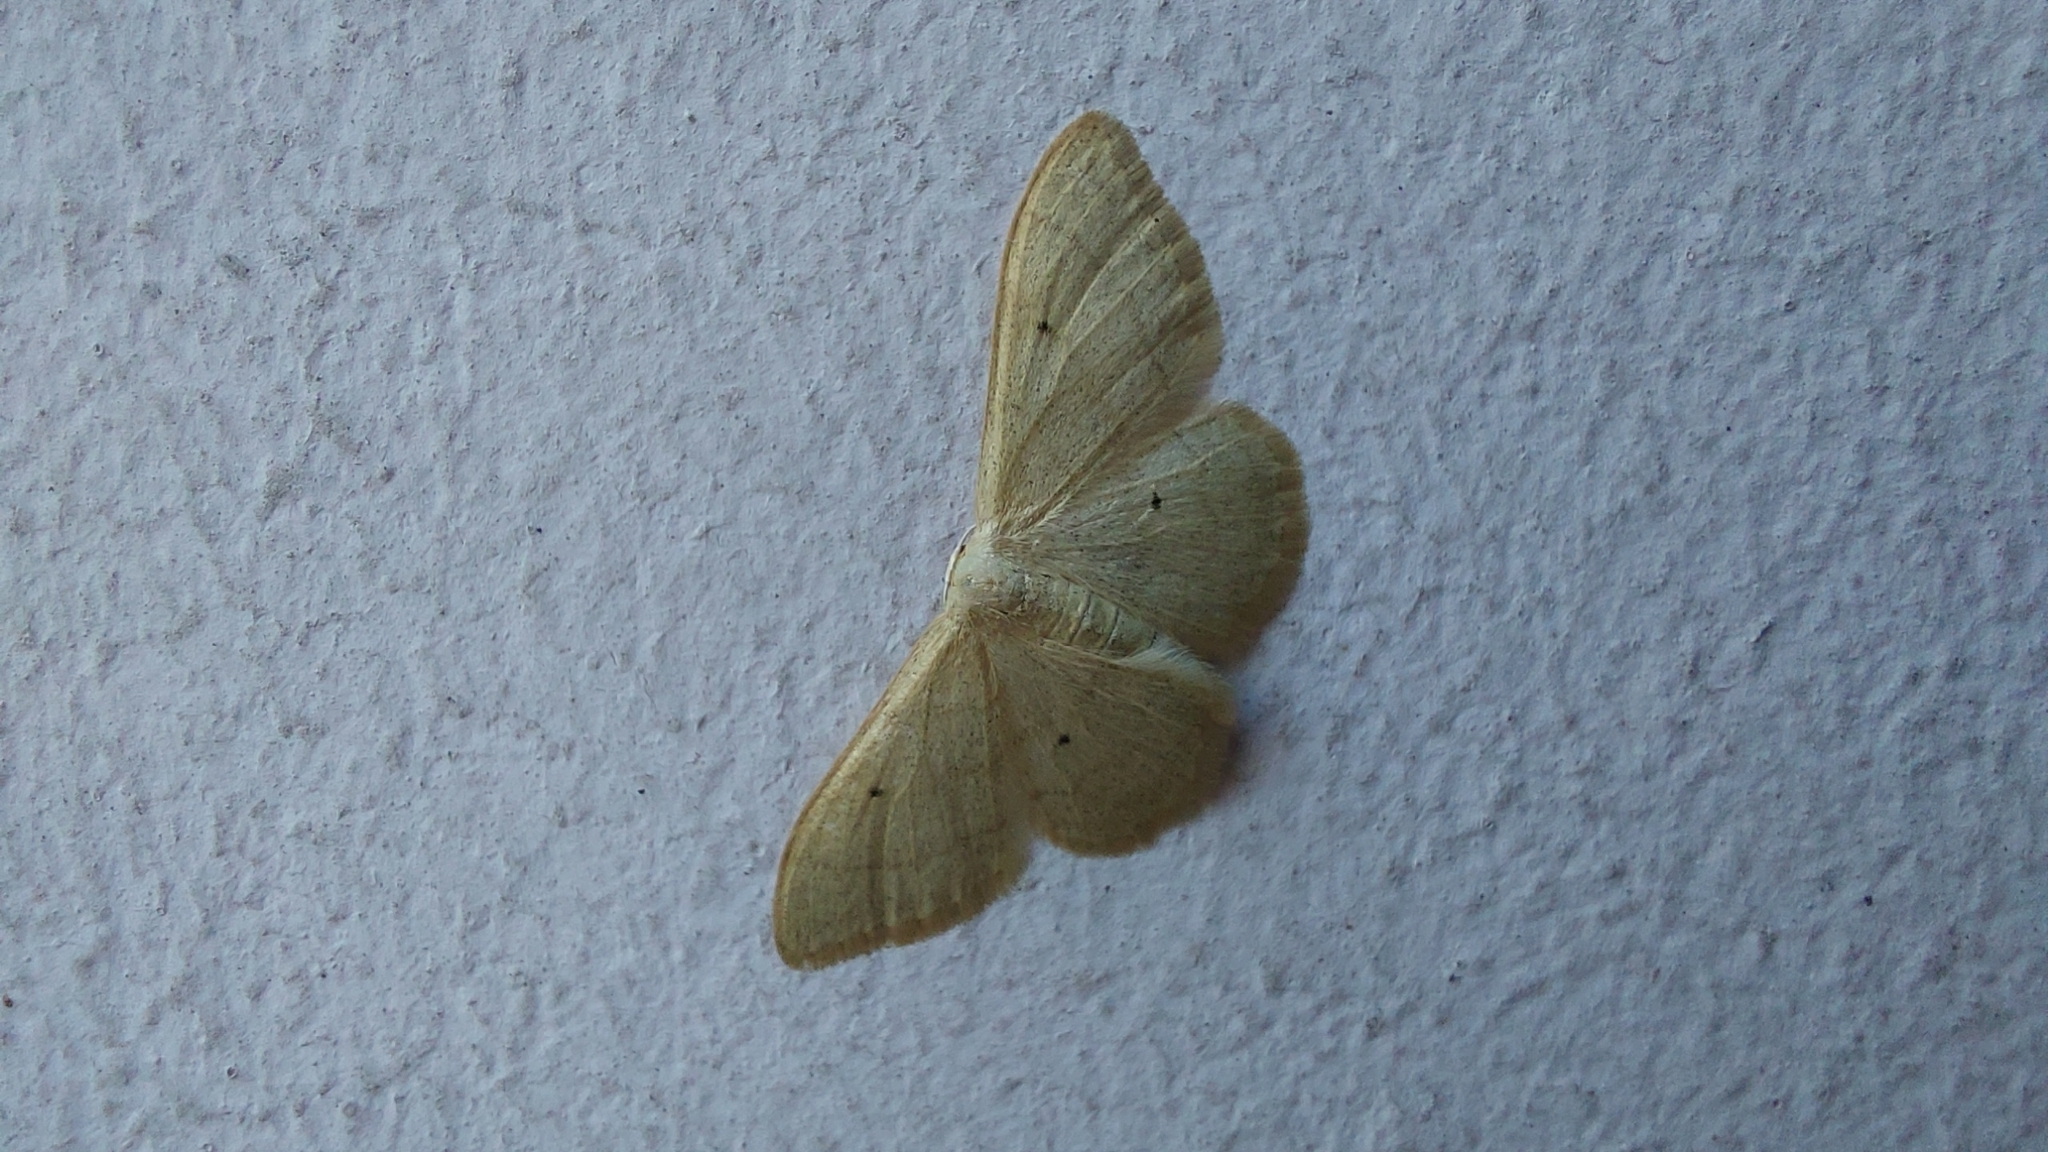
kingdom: Animalia
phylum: Arthropoda
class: Insecta
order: Lepidoptera
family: Geometridae
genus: Idaea
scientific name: Idaea straminata
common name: Plain wave
